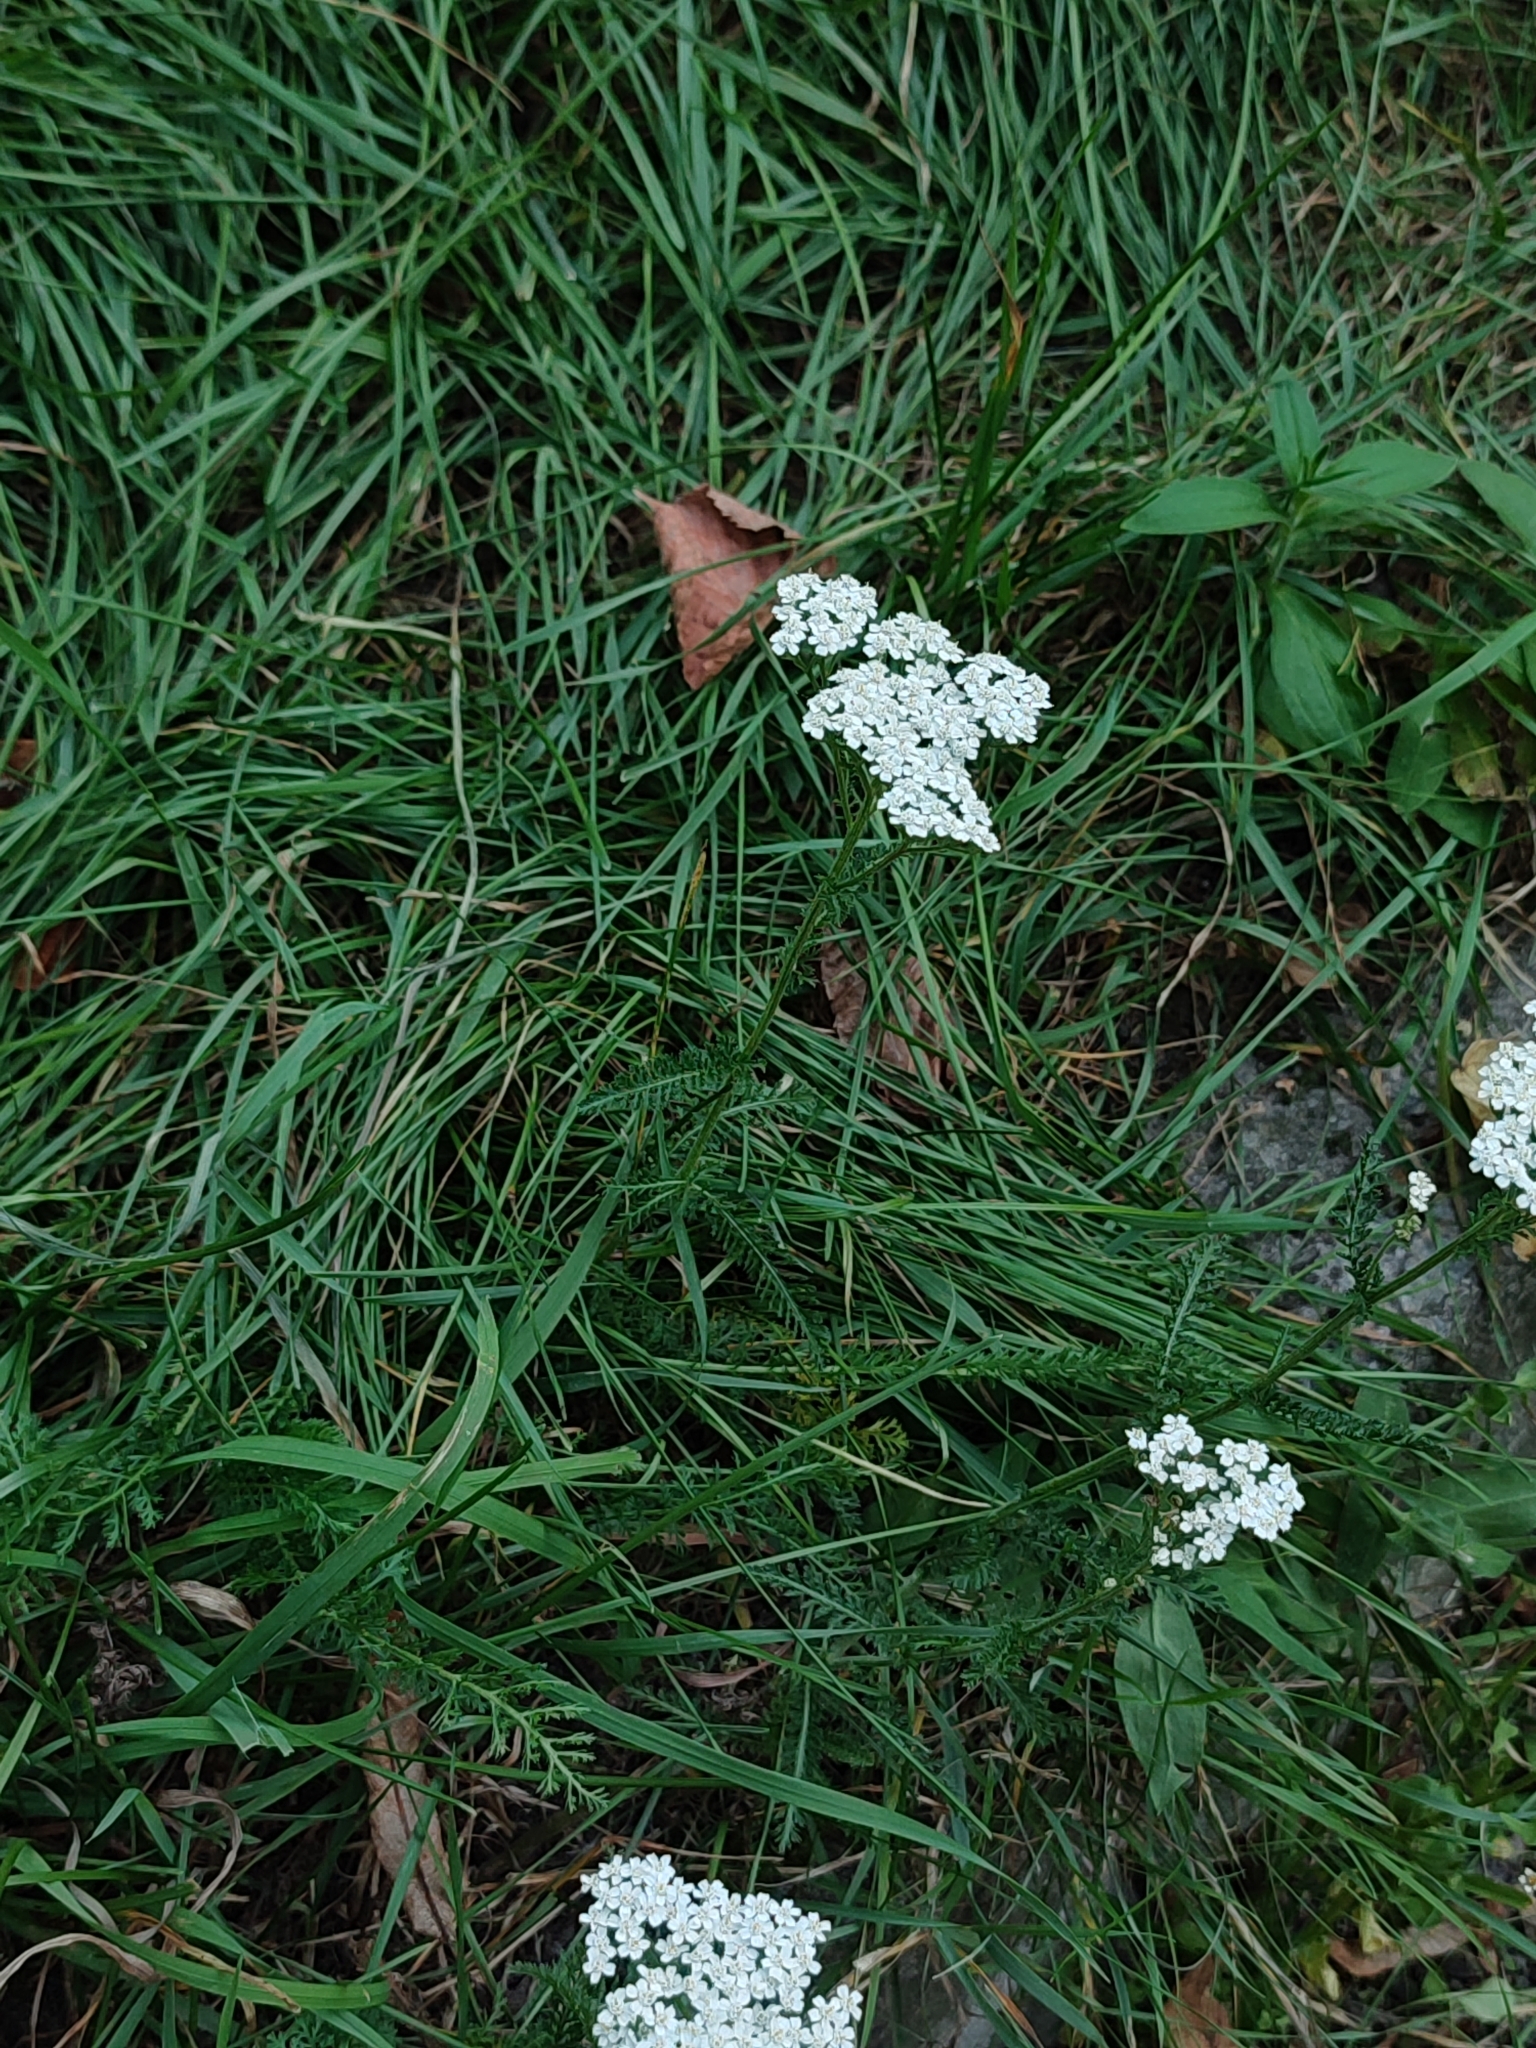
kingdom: Plantae
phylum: Tracheophyta
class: Magnoliopsida
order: Asterales
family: Asteraceae
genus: Achillea
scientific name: Achillea millefolium
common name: Yarrow
